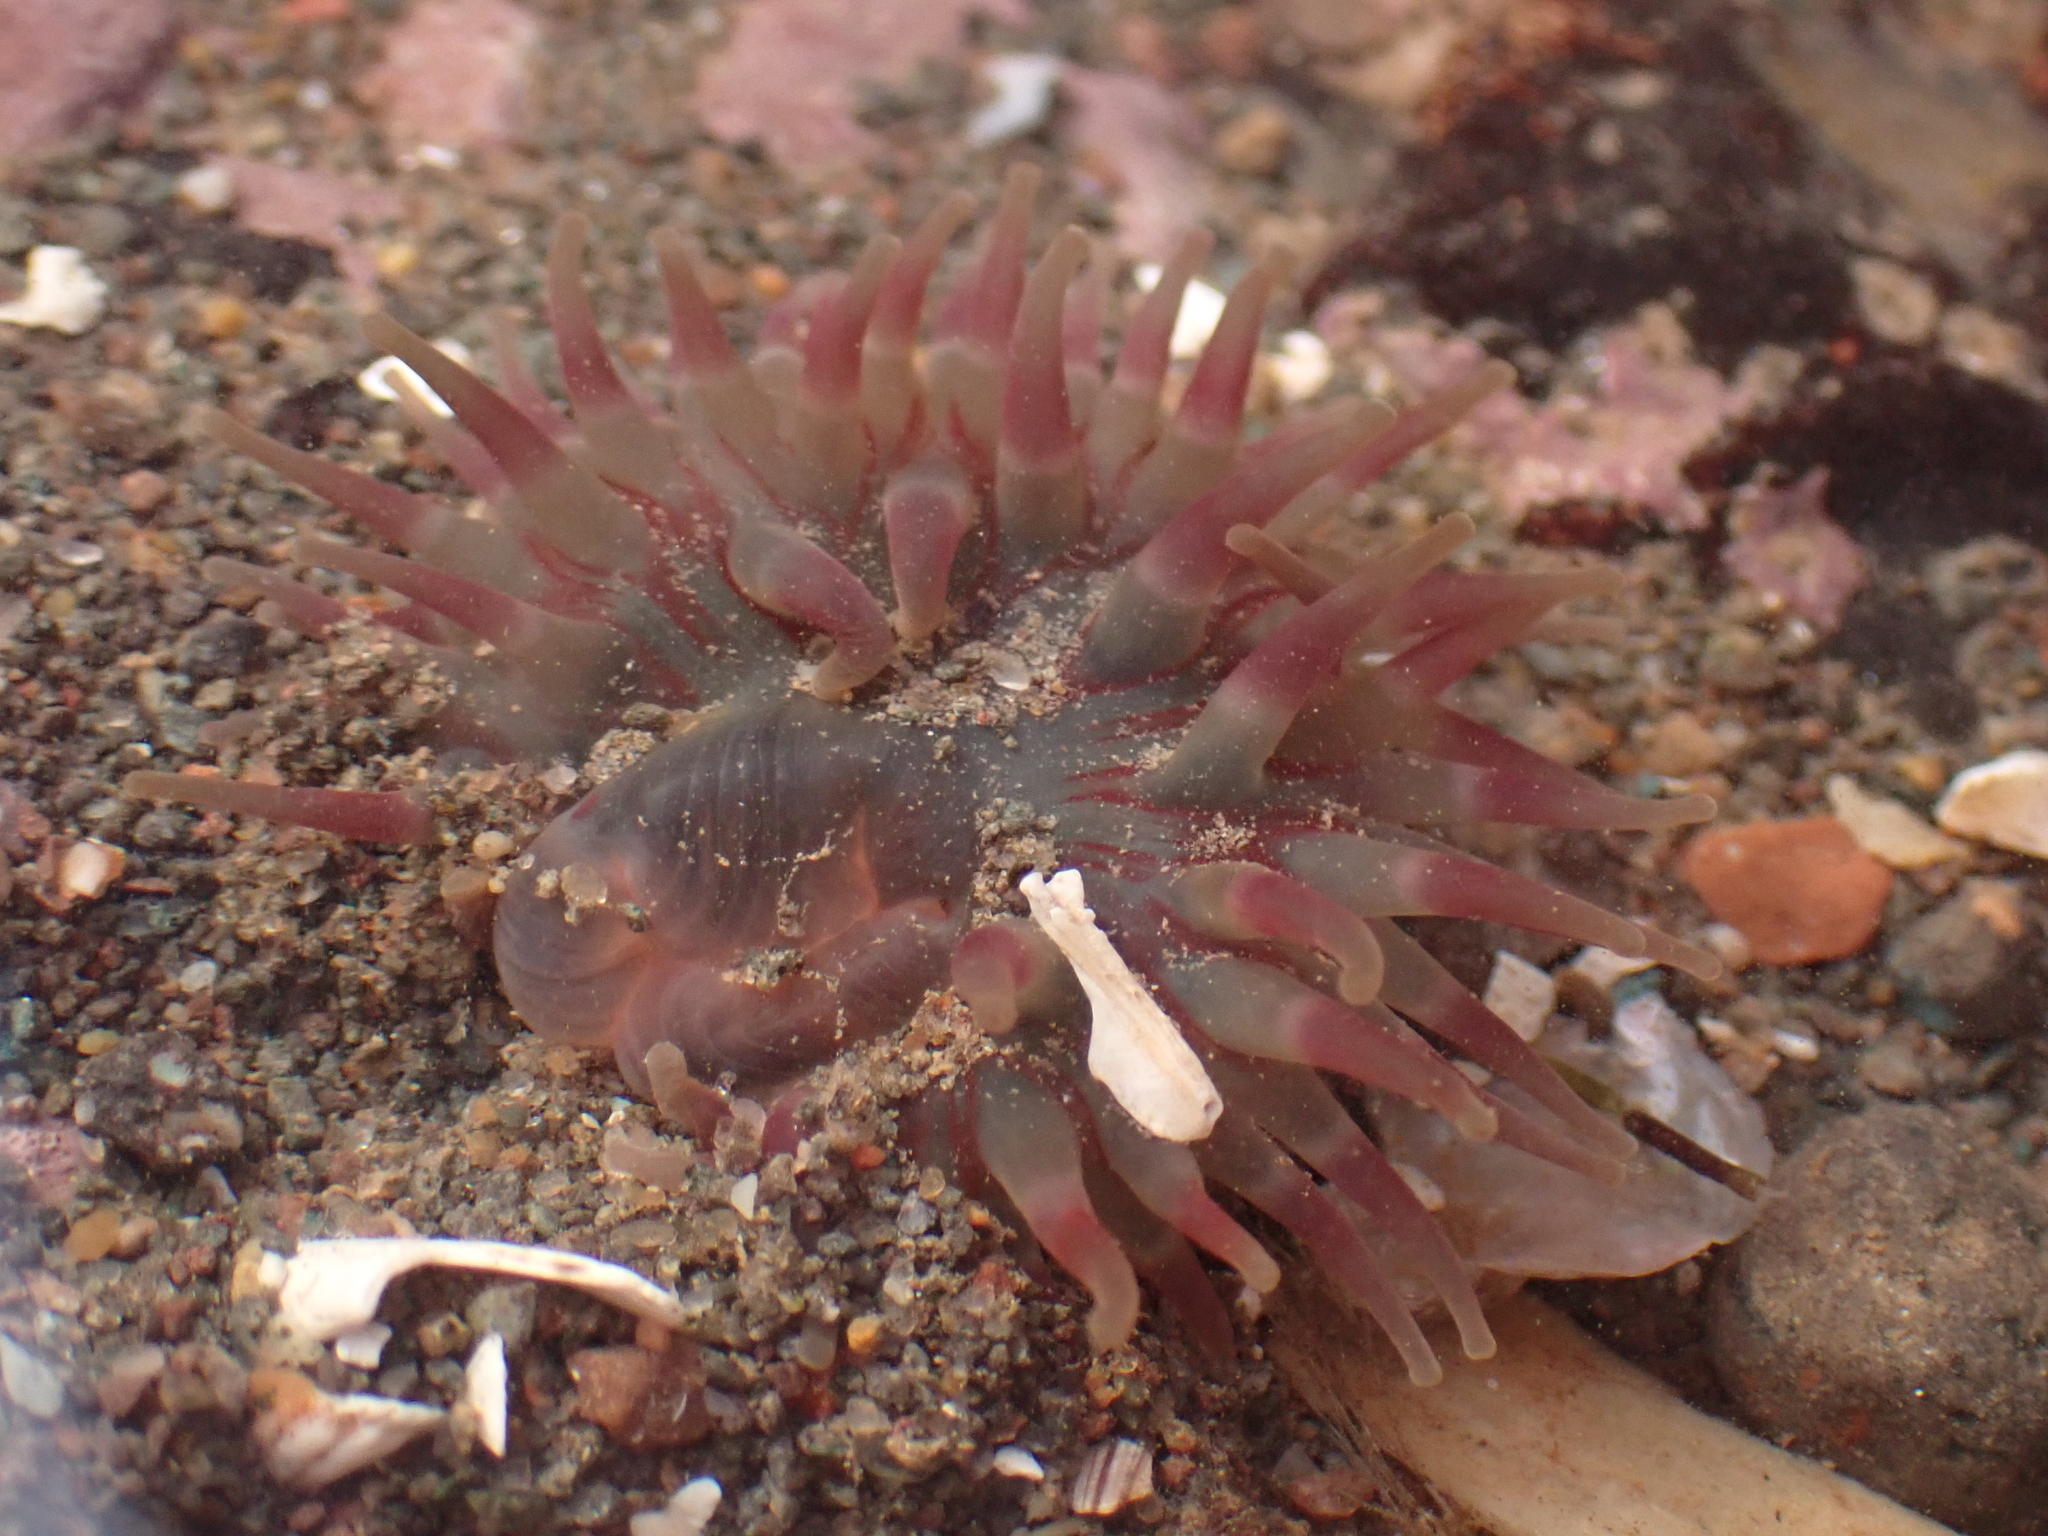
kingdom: Animalia
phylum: Cnidaria
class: Anthozoa
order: Actiniaria
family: Actiniidae
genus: Urticina
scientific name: Urticina crassicornis
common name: Mottled anemone
